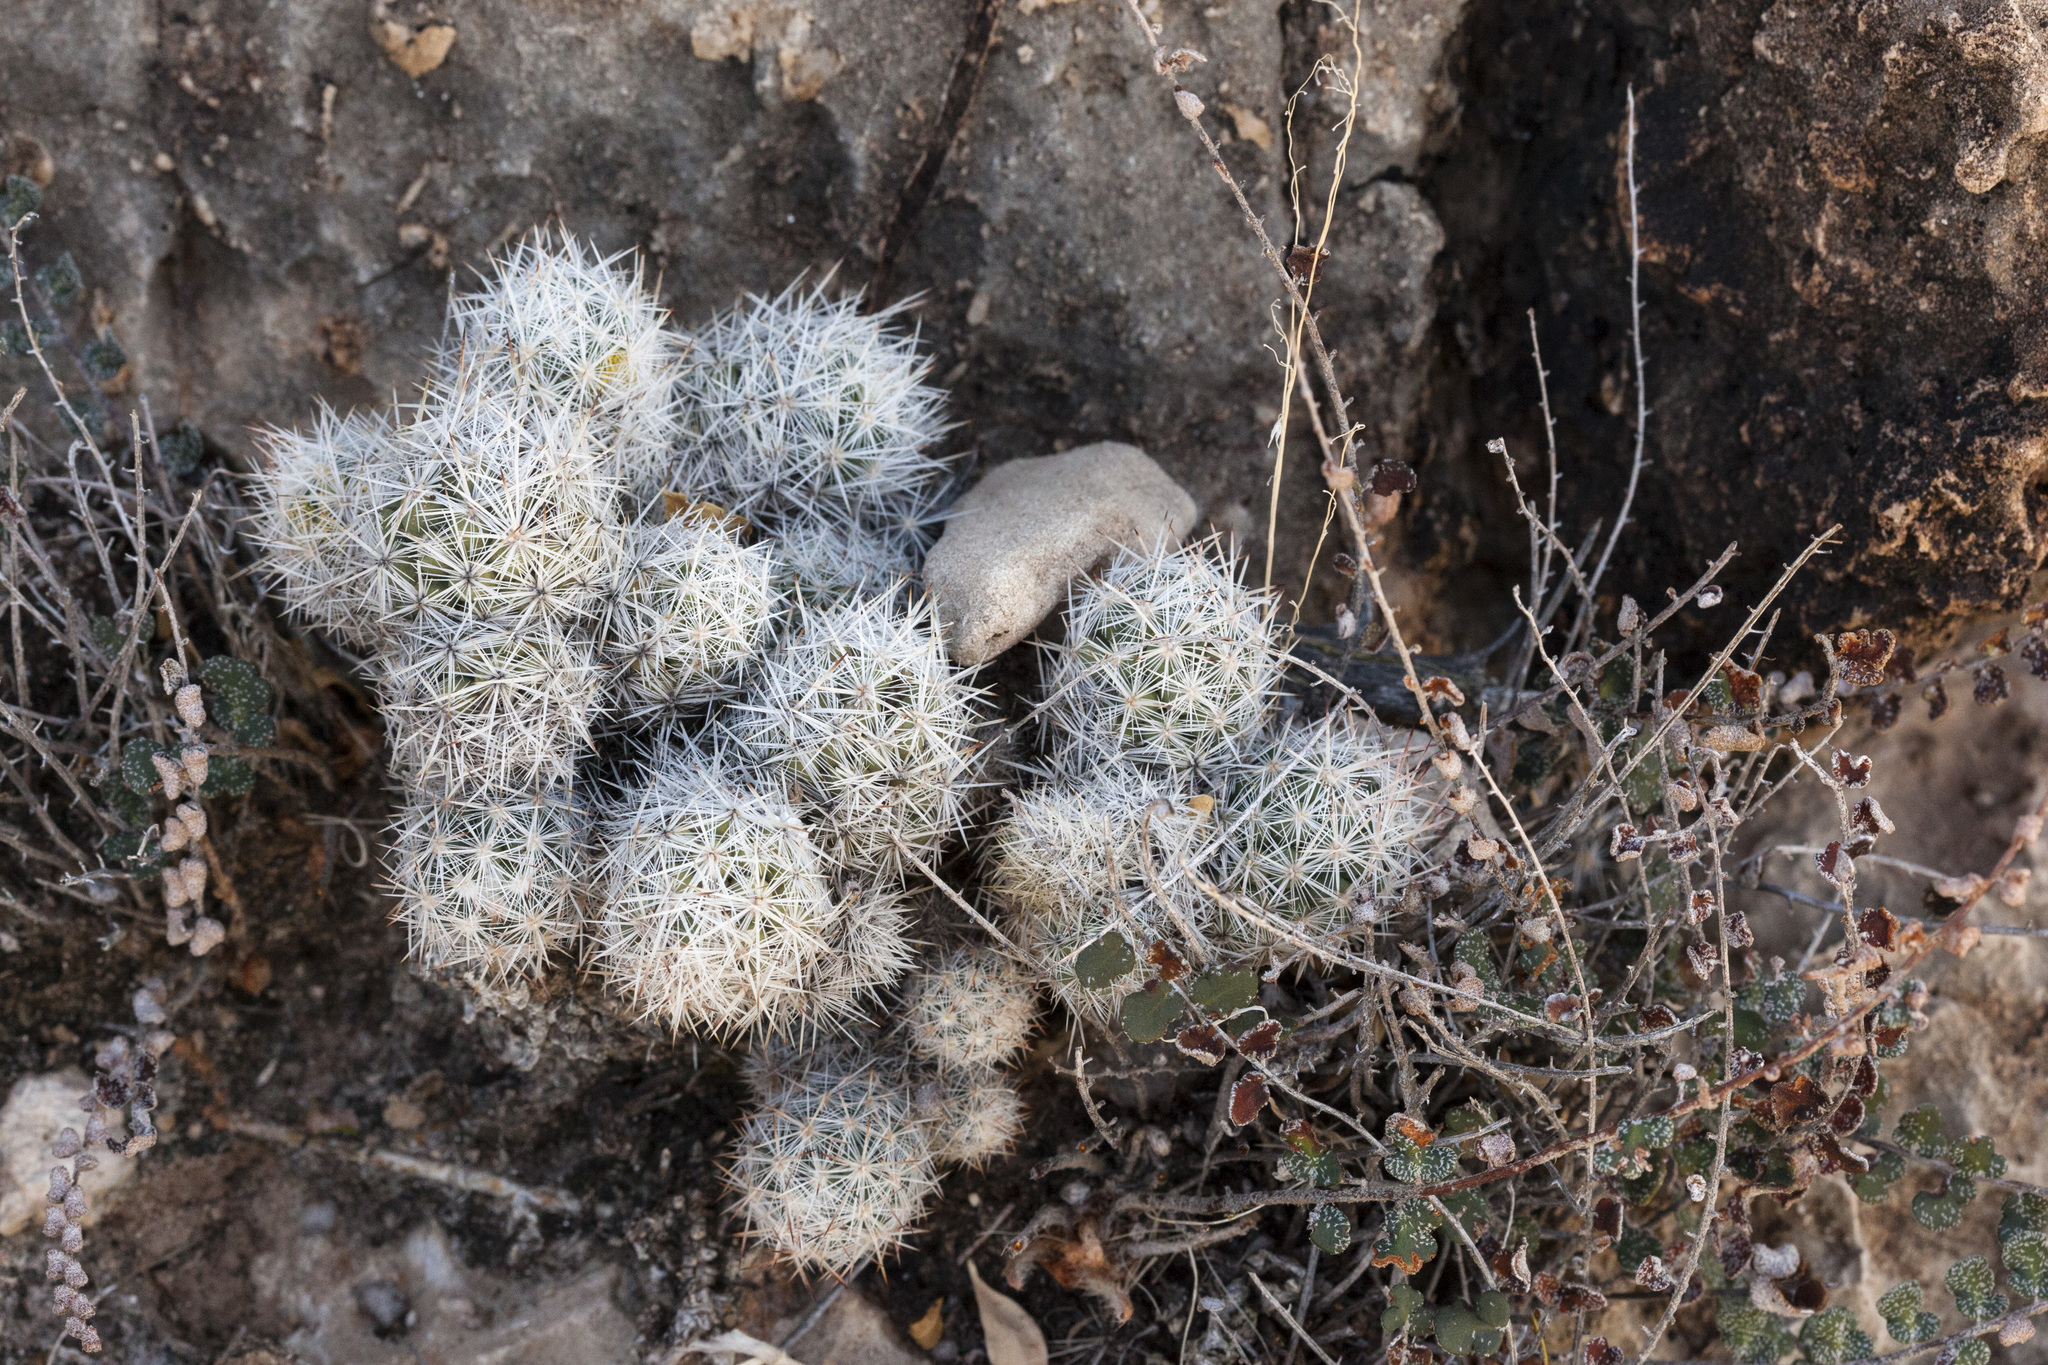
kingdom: Plantae
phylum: Tracheophyta
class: Magnoliopsida
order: Caryophyllales
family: Cactaceae
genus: Pelecyphora
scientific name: Pelecyphora sneedii
